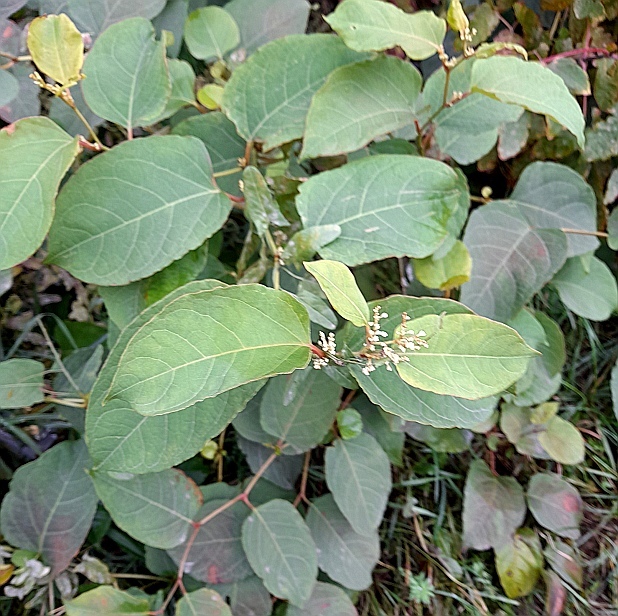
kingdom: Plantae
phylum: Tracheophyta
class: Magnoliopsida
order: Caryophyllales
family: Polygonaceae
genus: Reynoutria
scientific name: Reynoutria bohemica
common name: Bohemian knotweed
